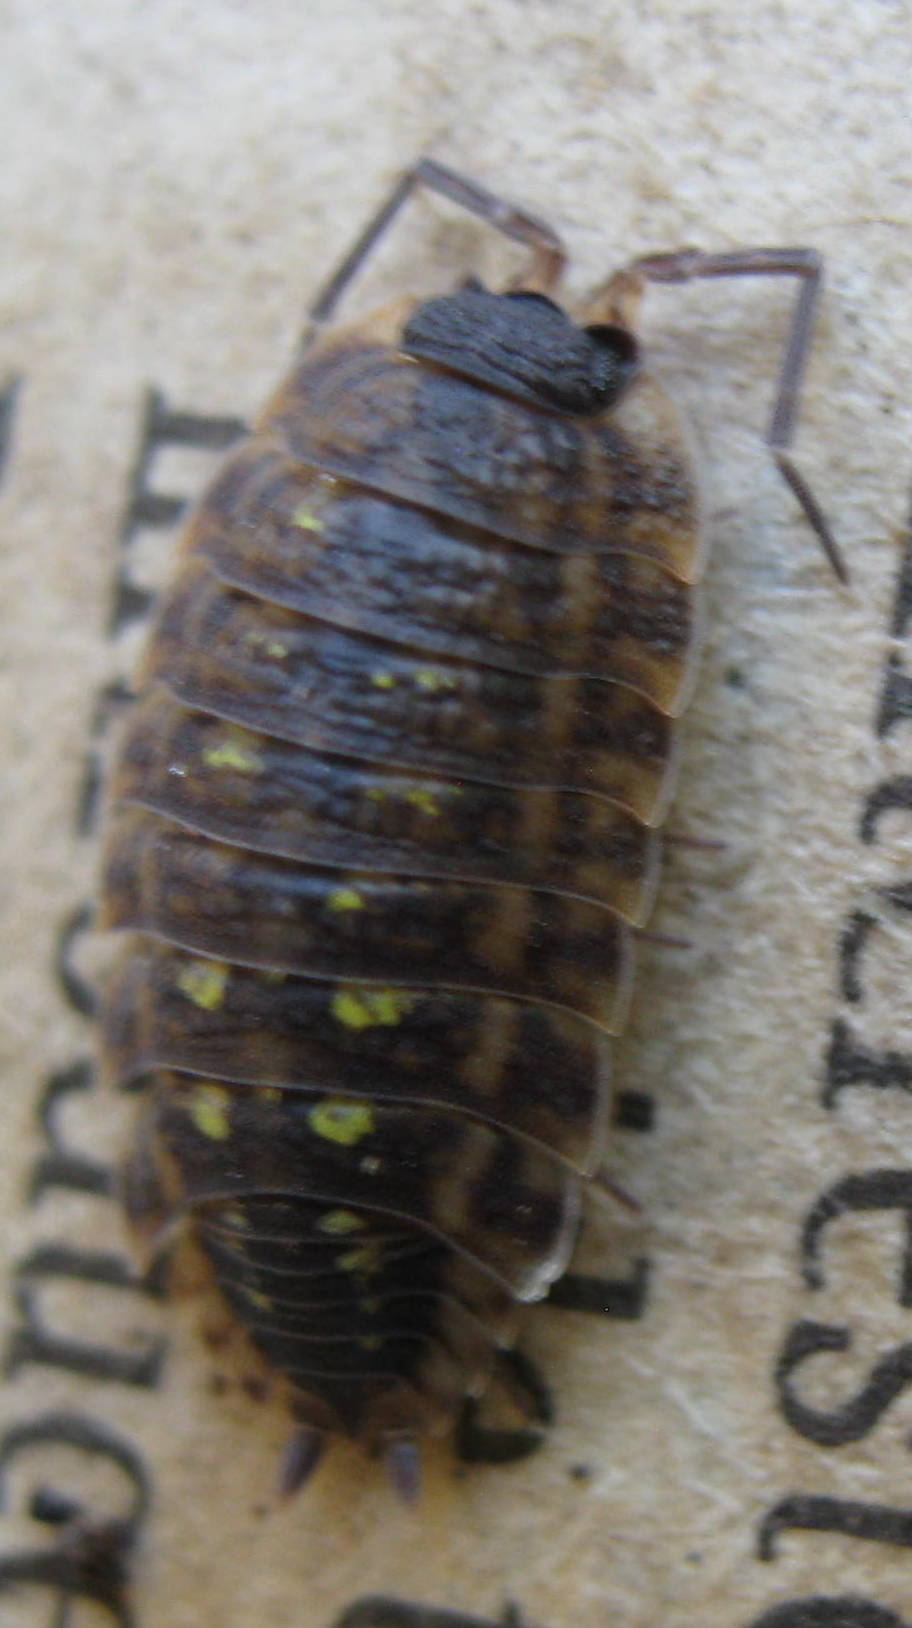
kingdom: Animalia
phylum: Arthropoda
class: Malacostraca
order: Isopoda
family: Porcellionidae
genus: Porcellio
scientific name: Porcellio spinicornis
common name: Painted woodlouse
